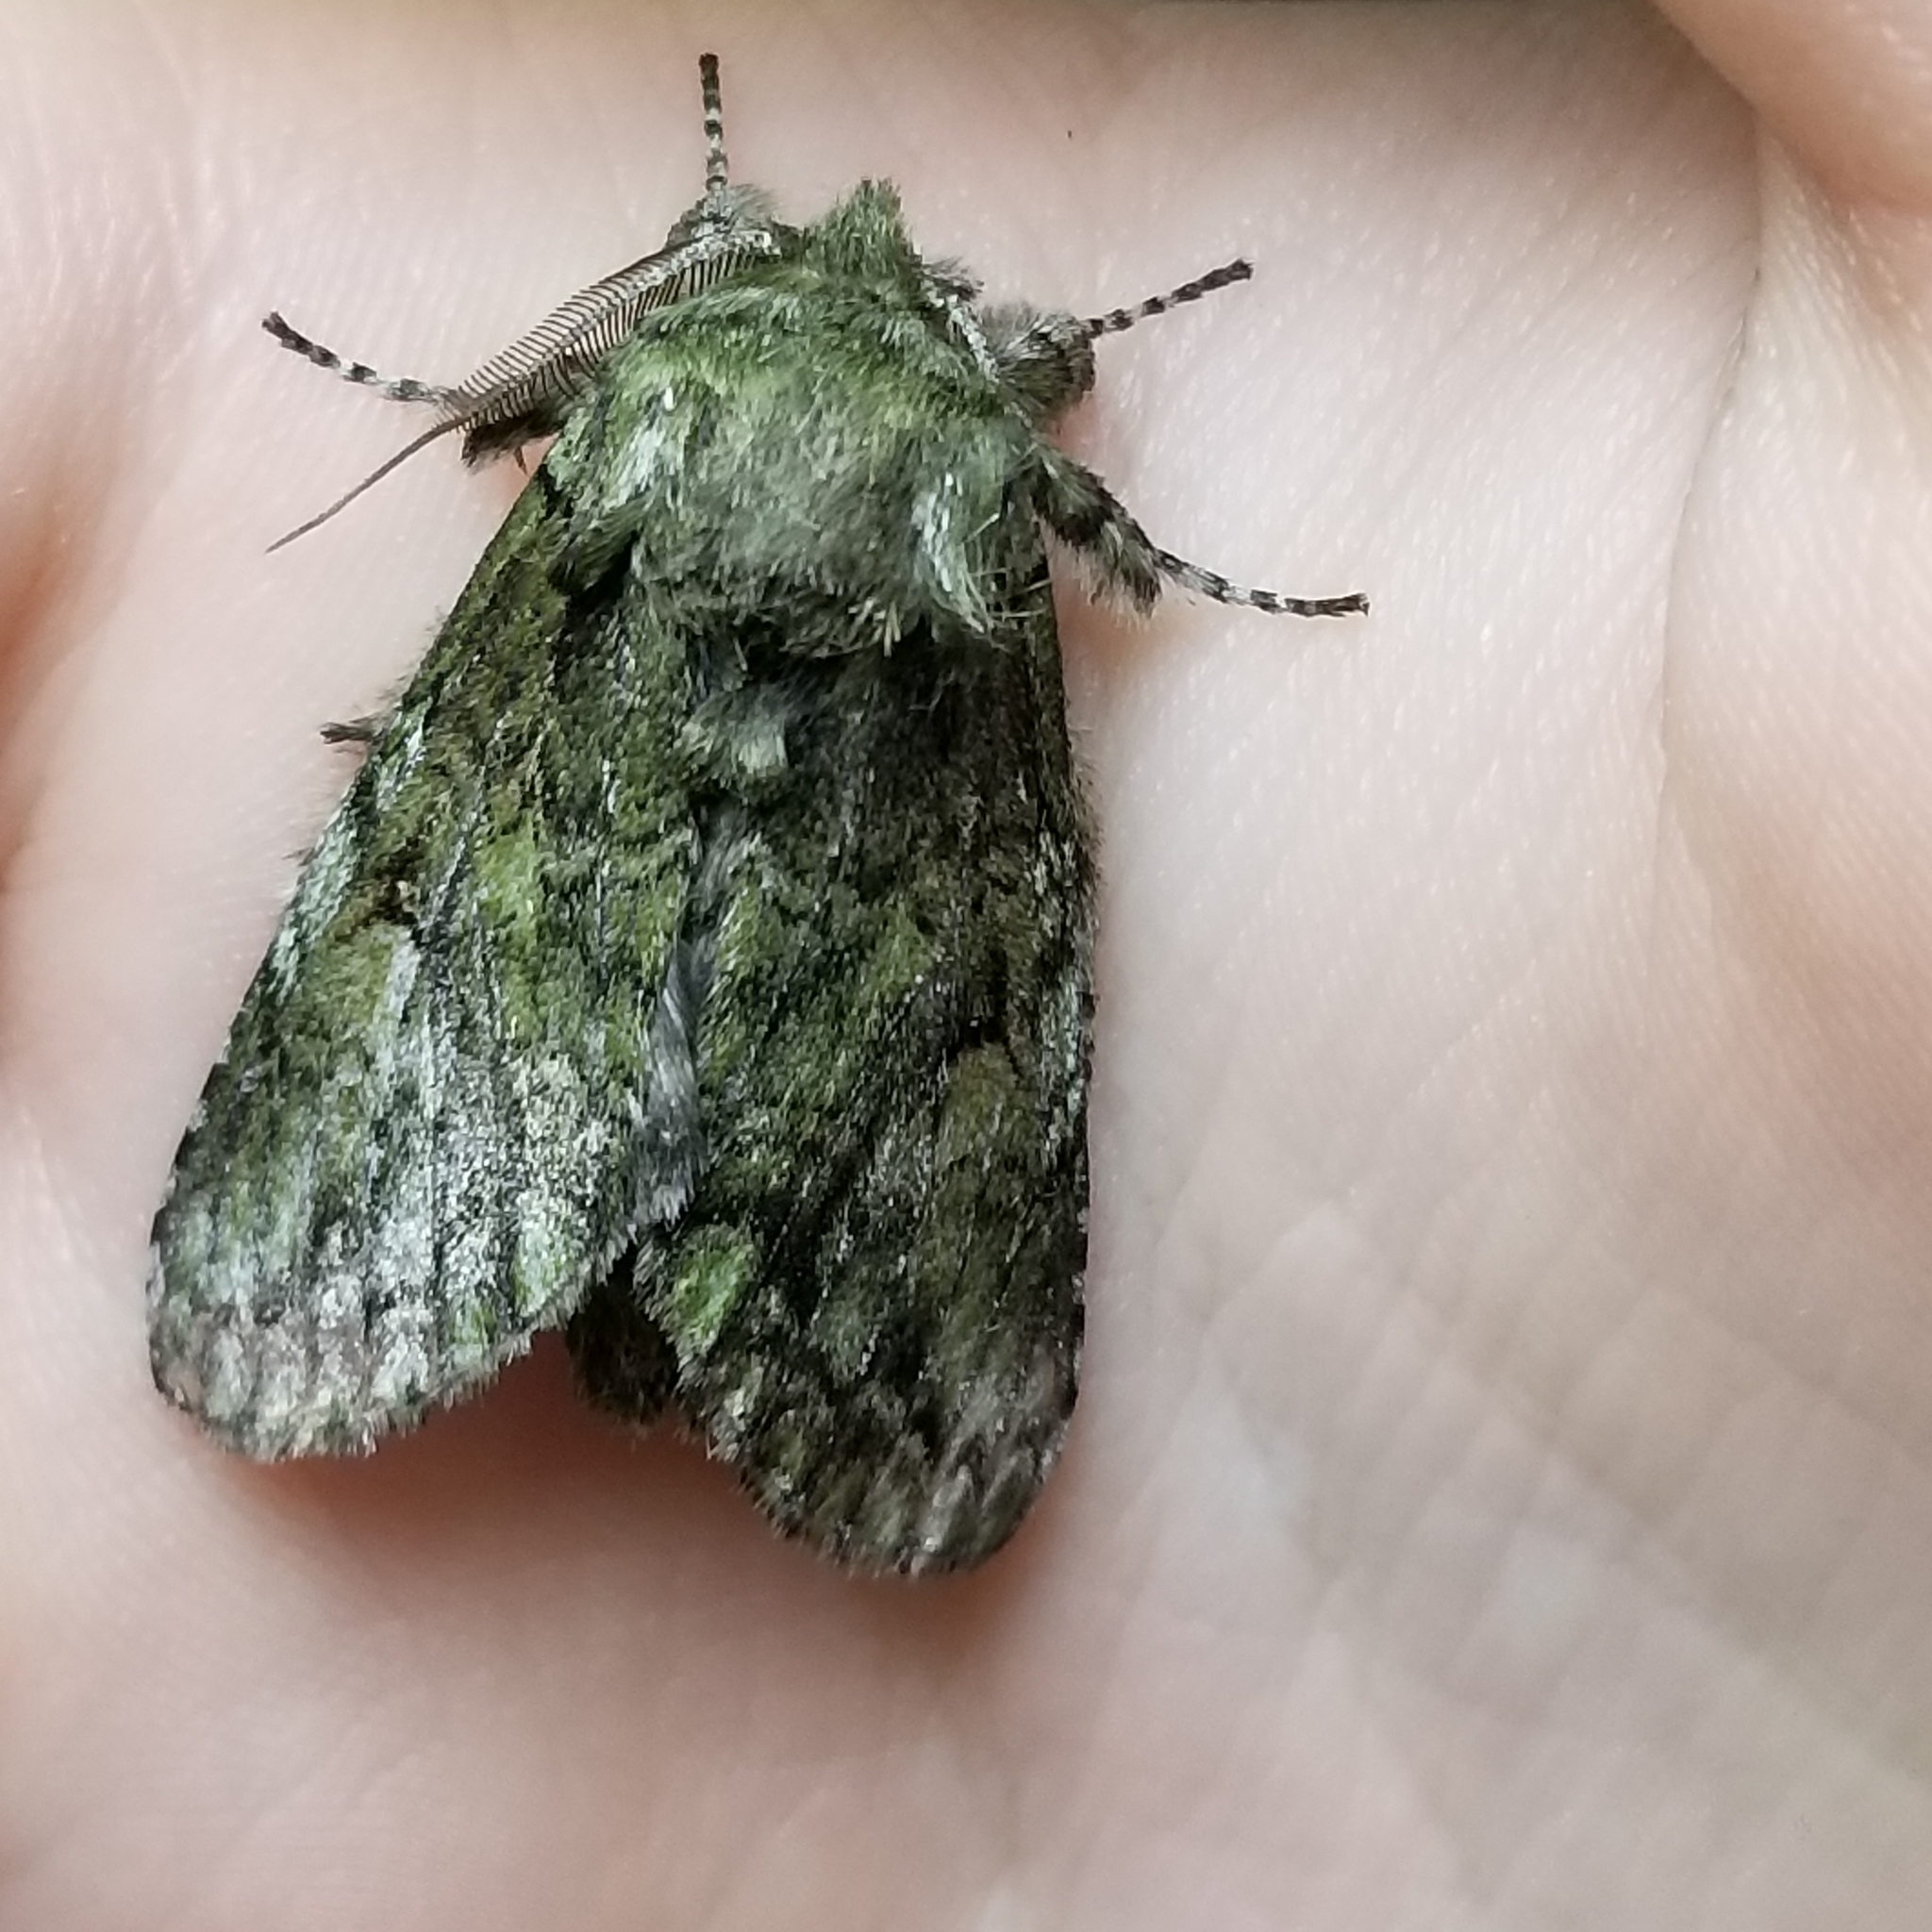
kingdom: Animalia
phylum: Arthropoda
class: Insecta
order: Lepidoptera
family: Notodontidae
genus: Heterocampa
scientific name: Heterocampa
